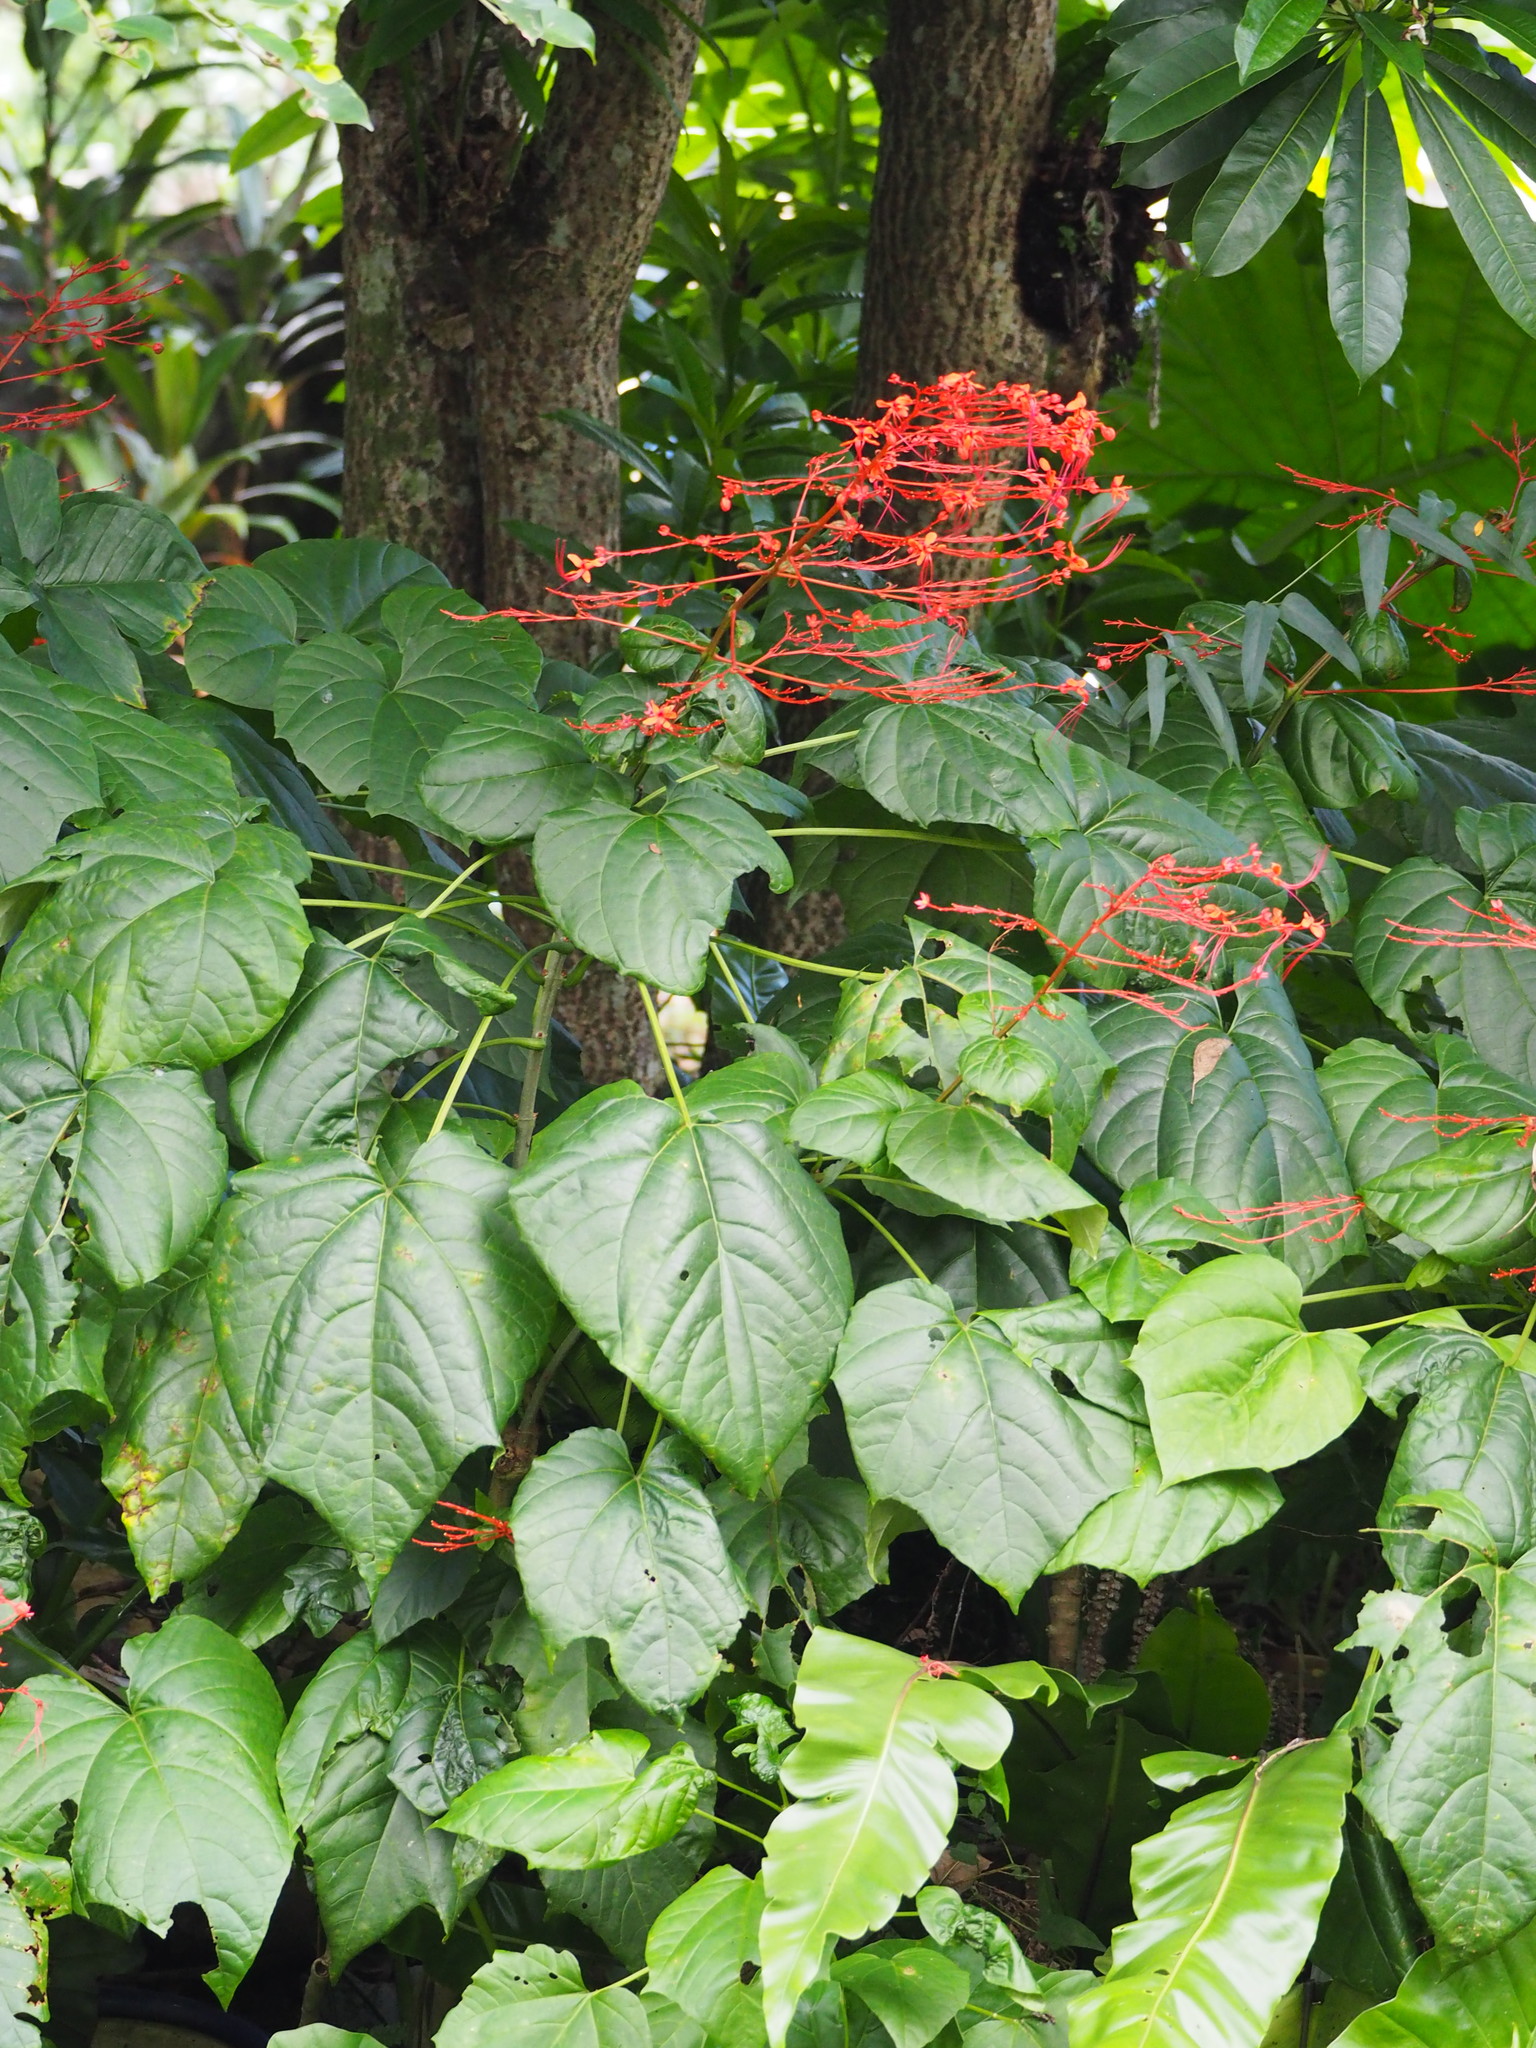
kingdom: Plantae
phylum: Tracheophyta
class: Magnoliopsida
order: Lamiales
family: Lamiaceae
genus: Clerodendrum
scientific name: Clerodendrum japonicum
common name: Japanese glorybower
